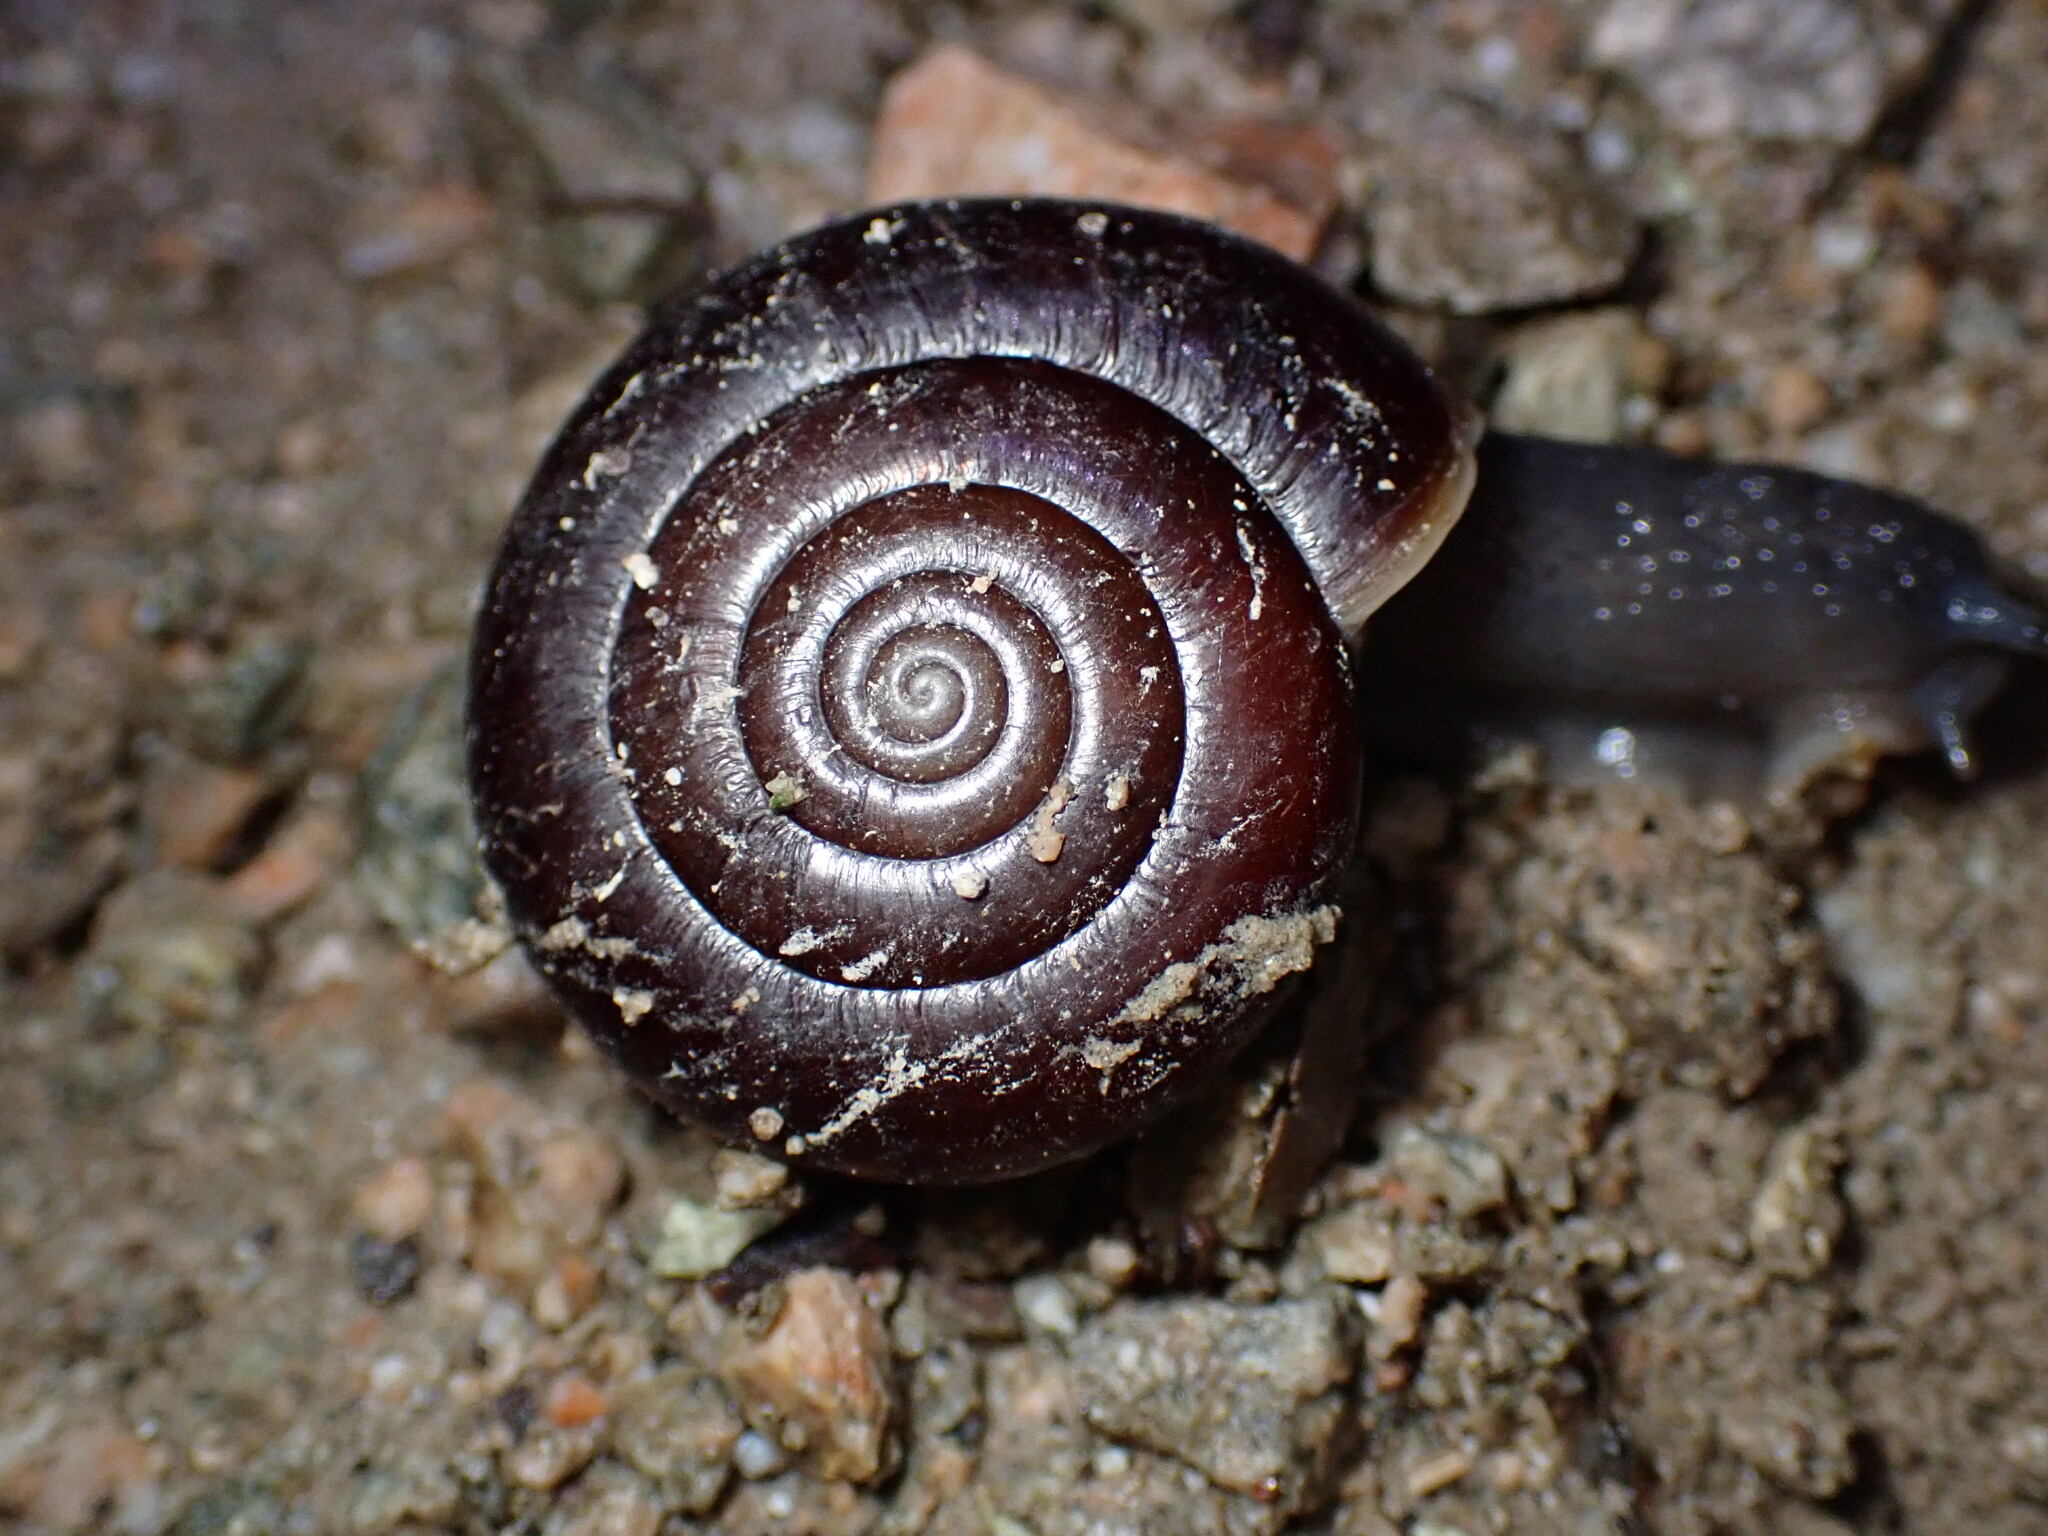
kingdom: Animalia
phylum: Mollusca
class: Gastropoda
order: Stylommatophora
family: Megomphicidae
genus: Glyptostoma
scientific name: Glyptostoma gabrielense
